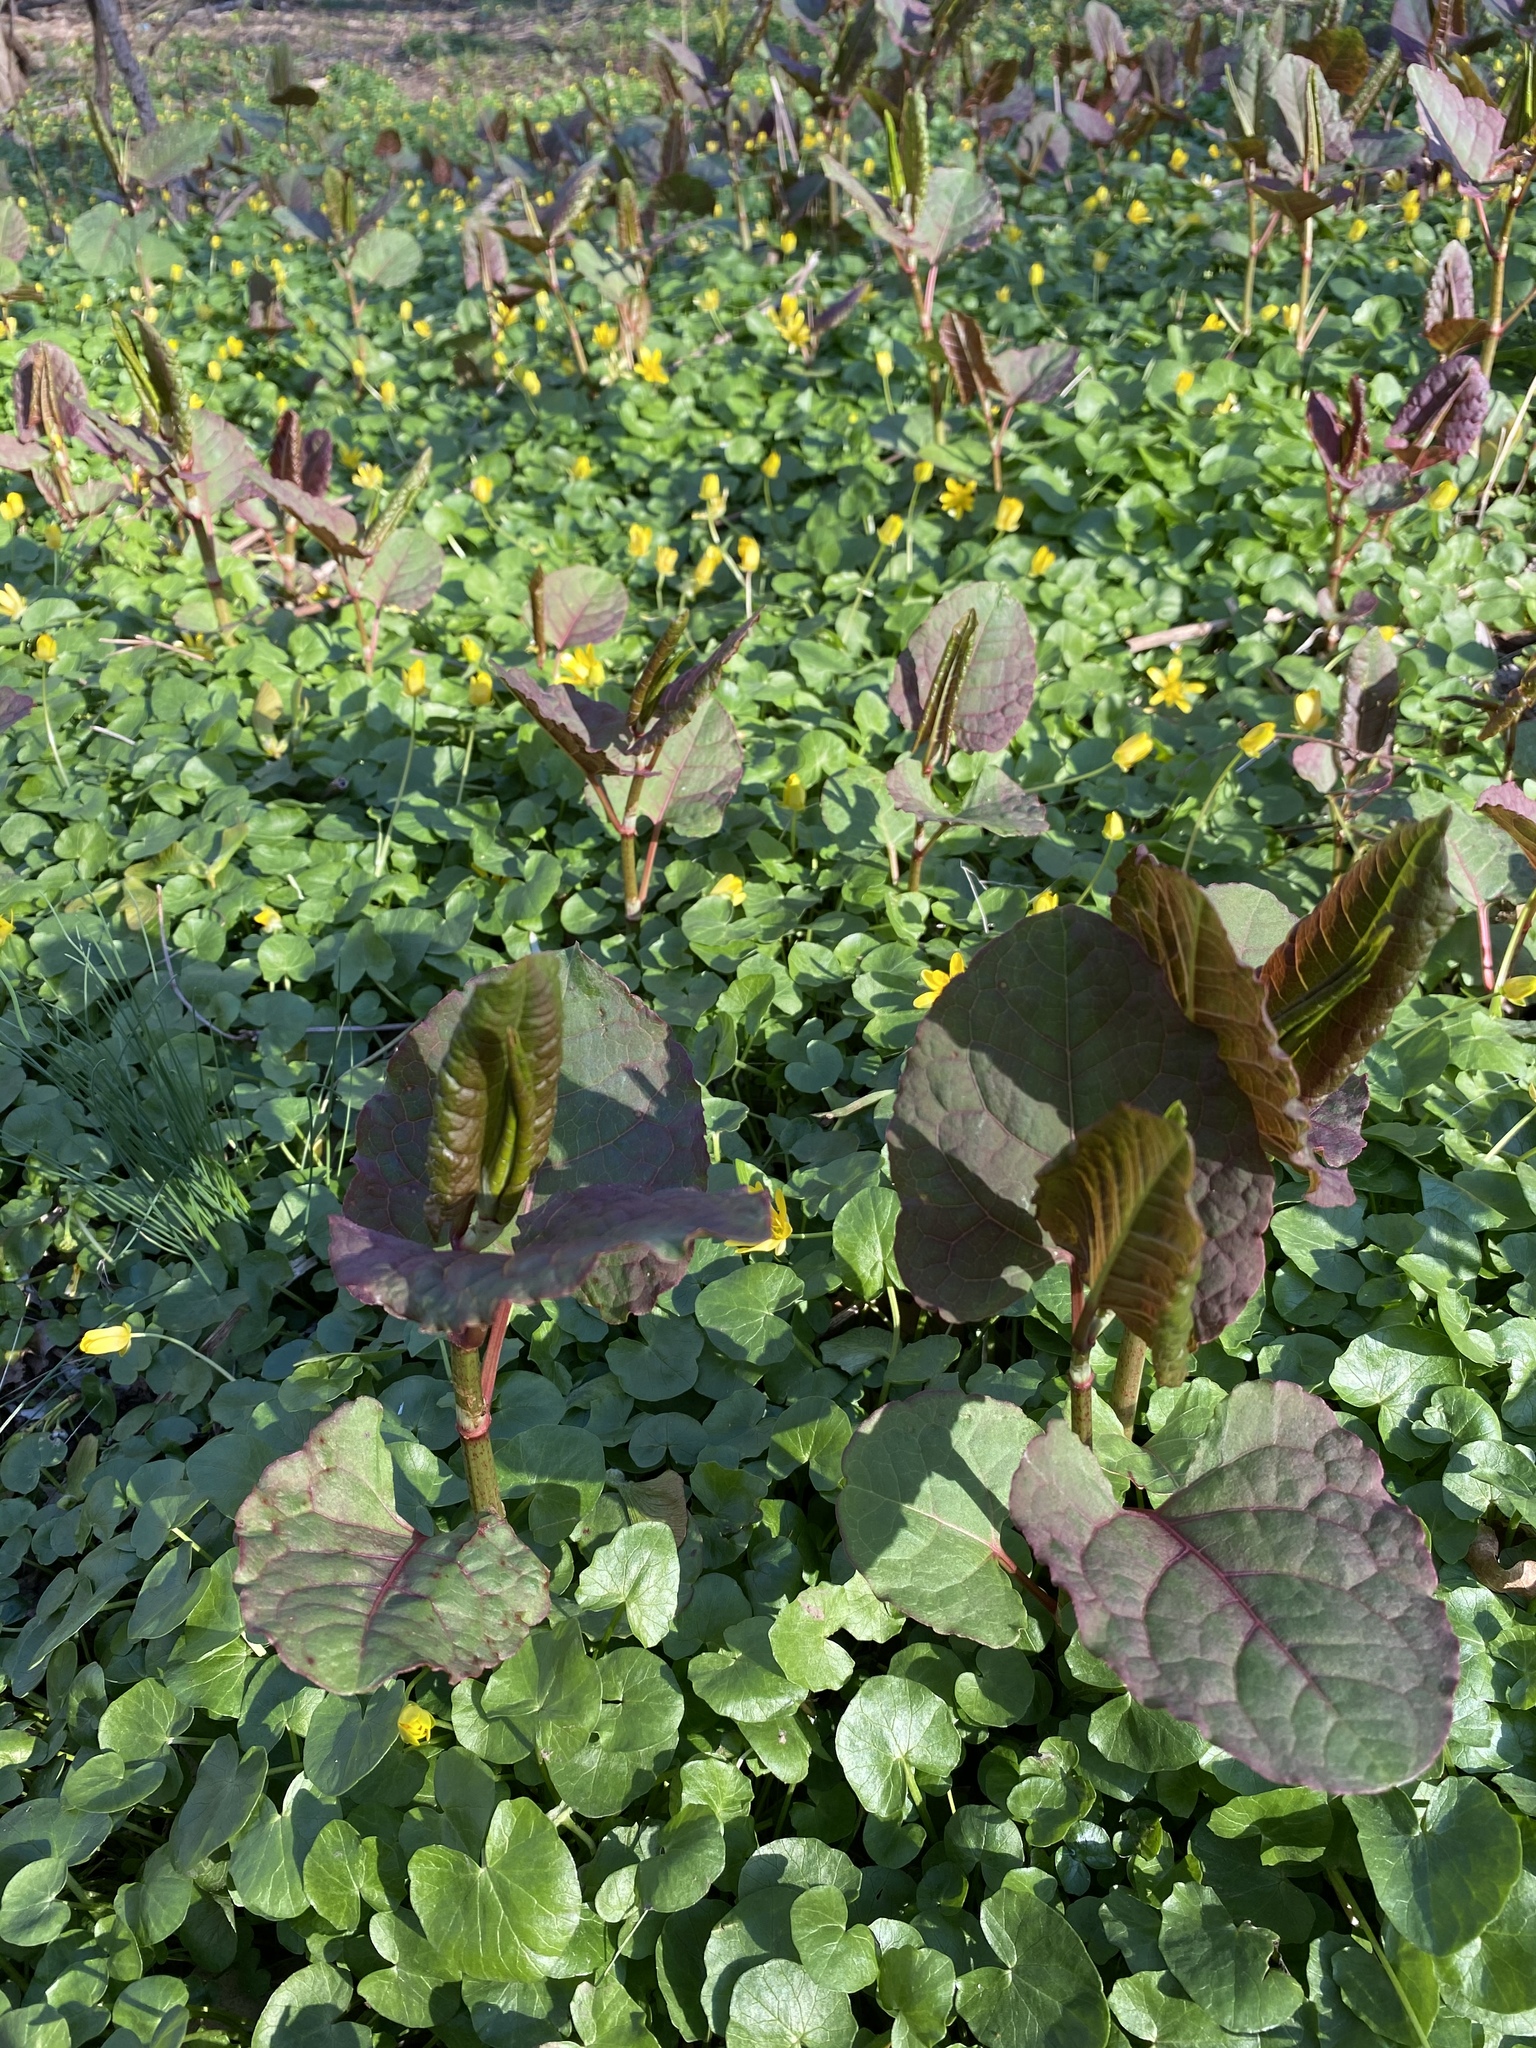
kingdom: Plantae
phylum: Tracheophyta
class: Magnoliopsida
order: Caryophyllales
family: Polygonaceae
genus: Reynoutria
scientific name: Reynoutria japonica
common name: Japanese knotweed
